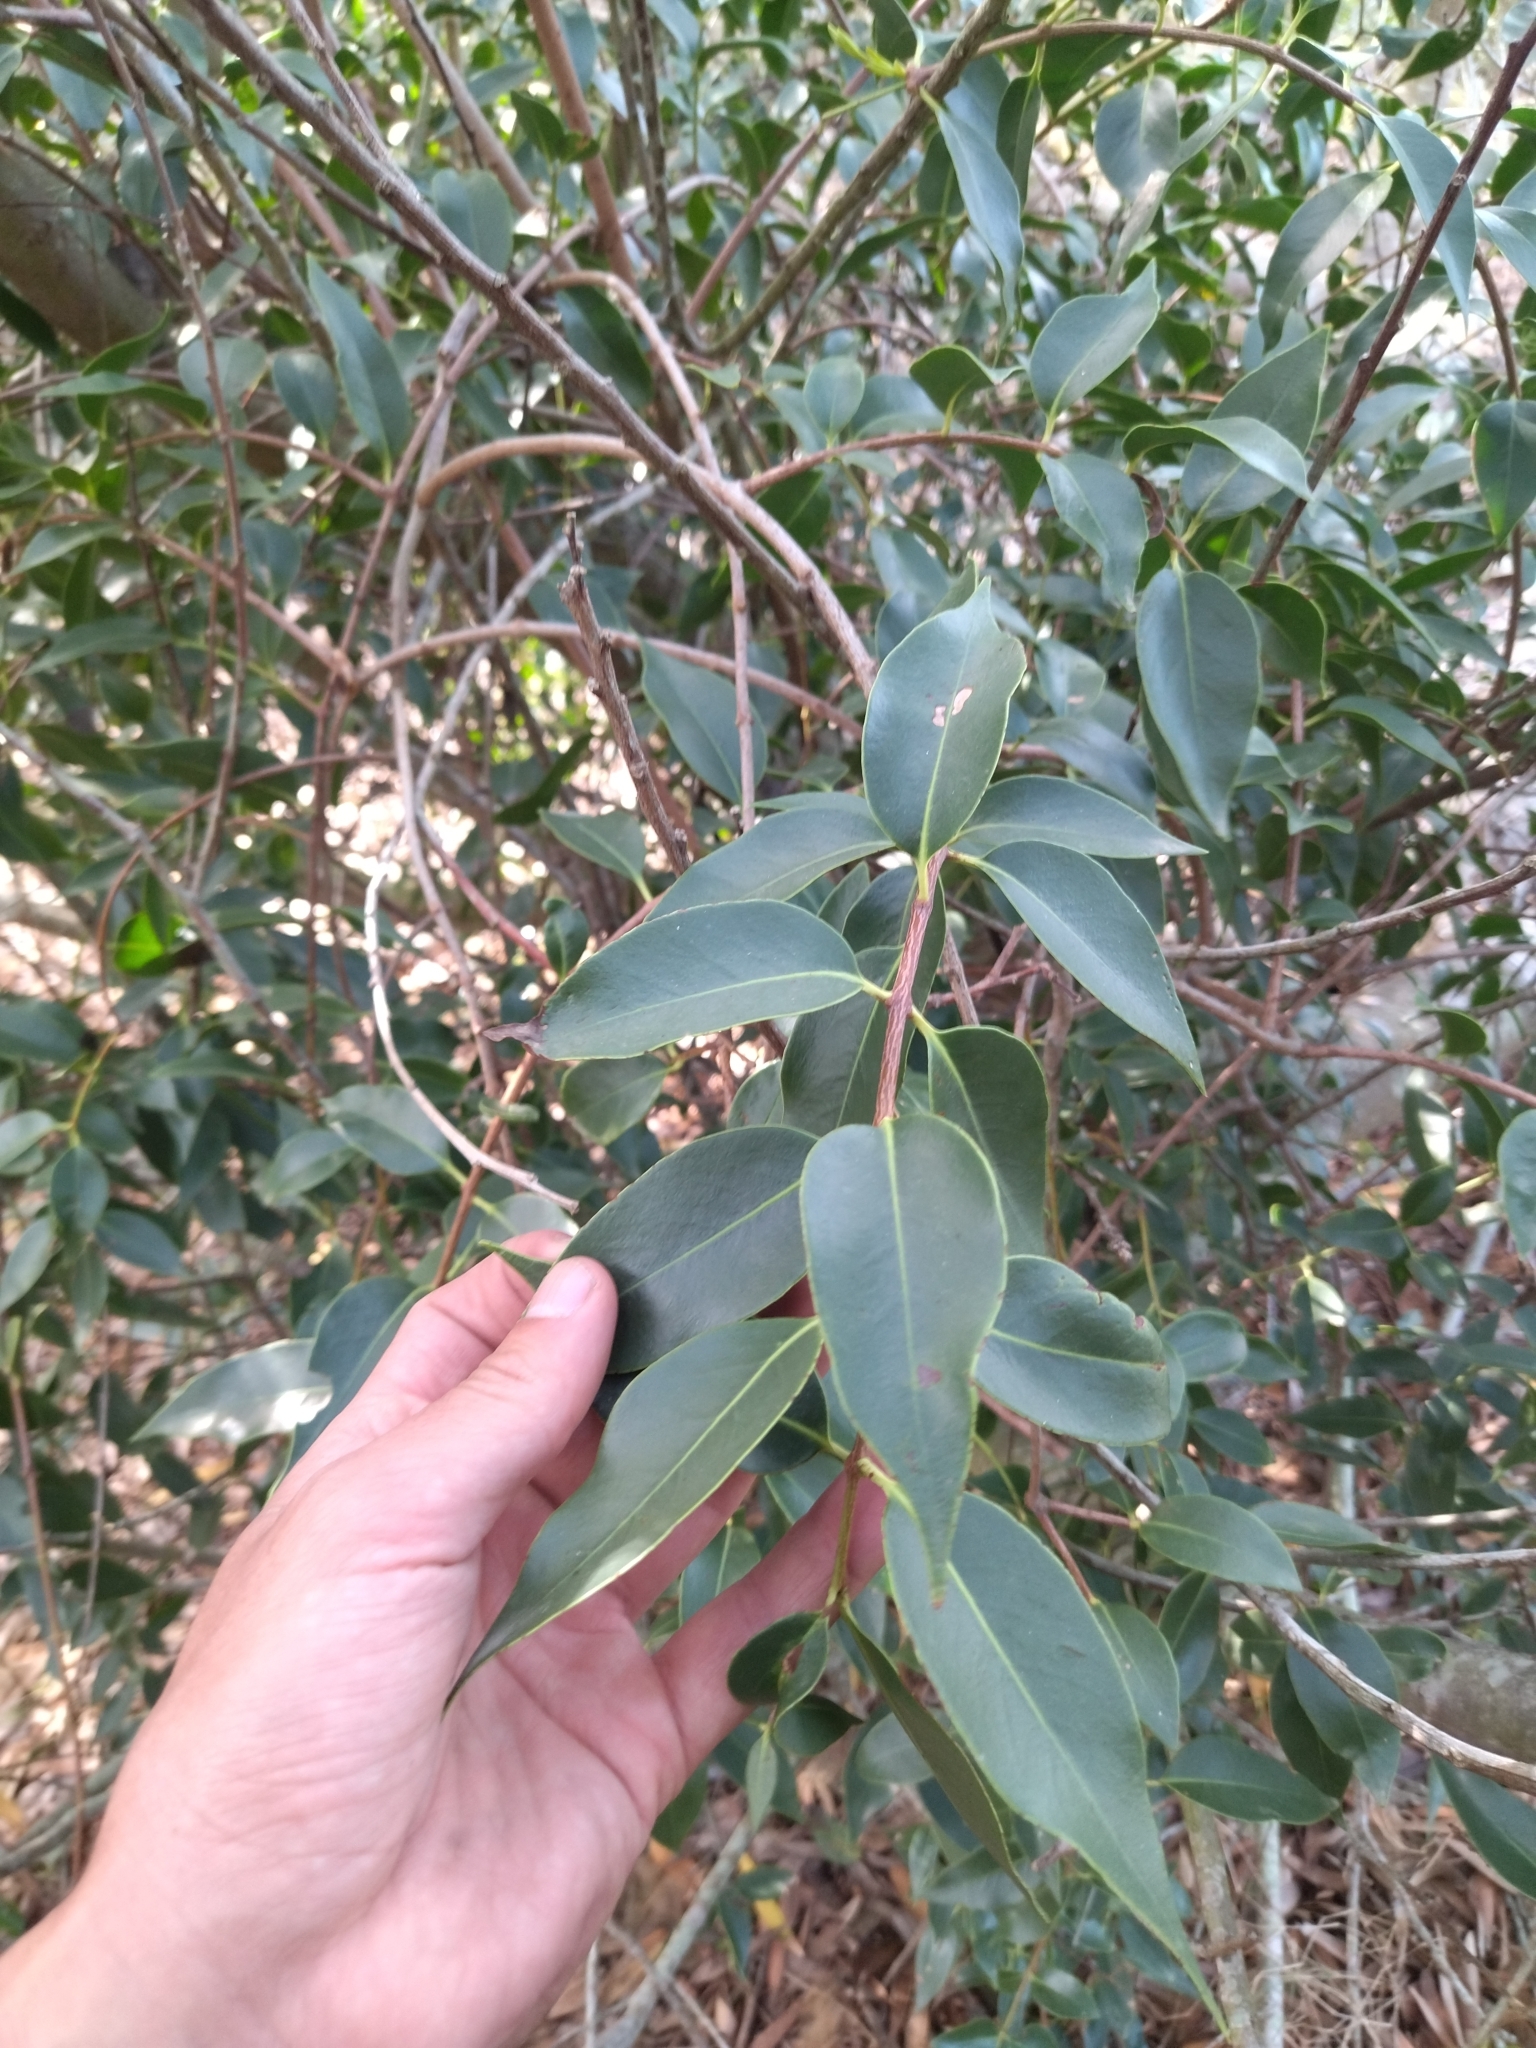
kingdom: Plantae
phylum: Tracheophyta
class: Magnoliopsida
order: Santalales
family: Loranthaceae
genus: Tripodanthus
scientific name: Tripodanthus acutifolius
